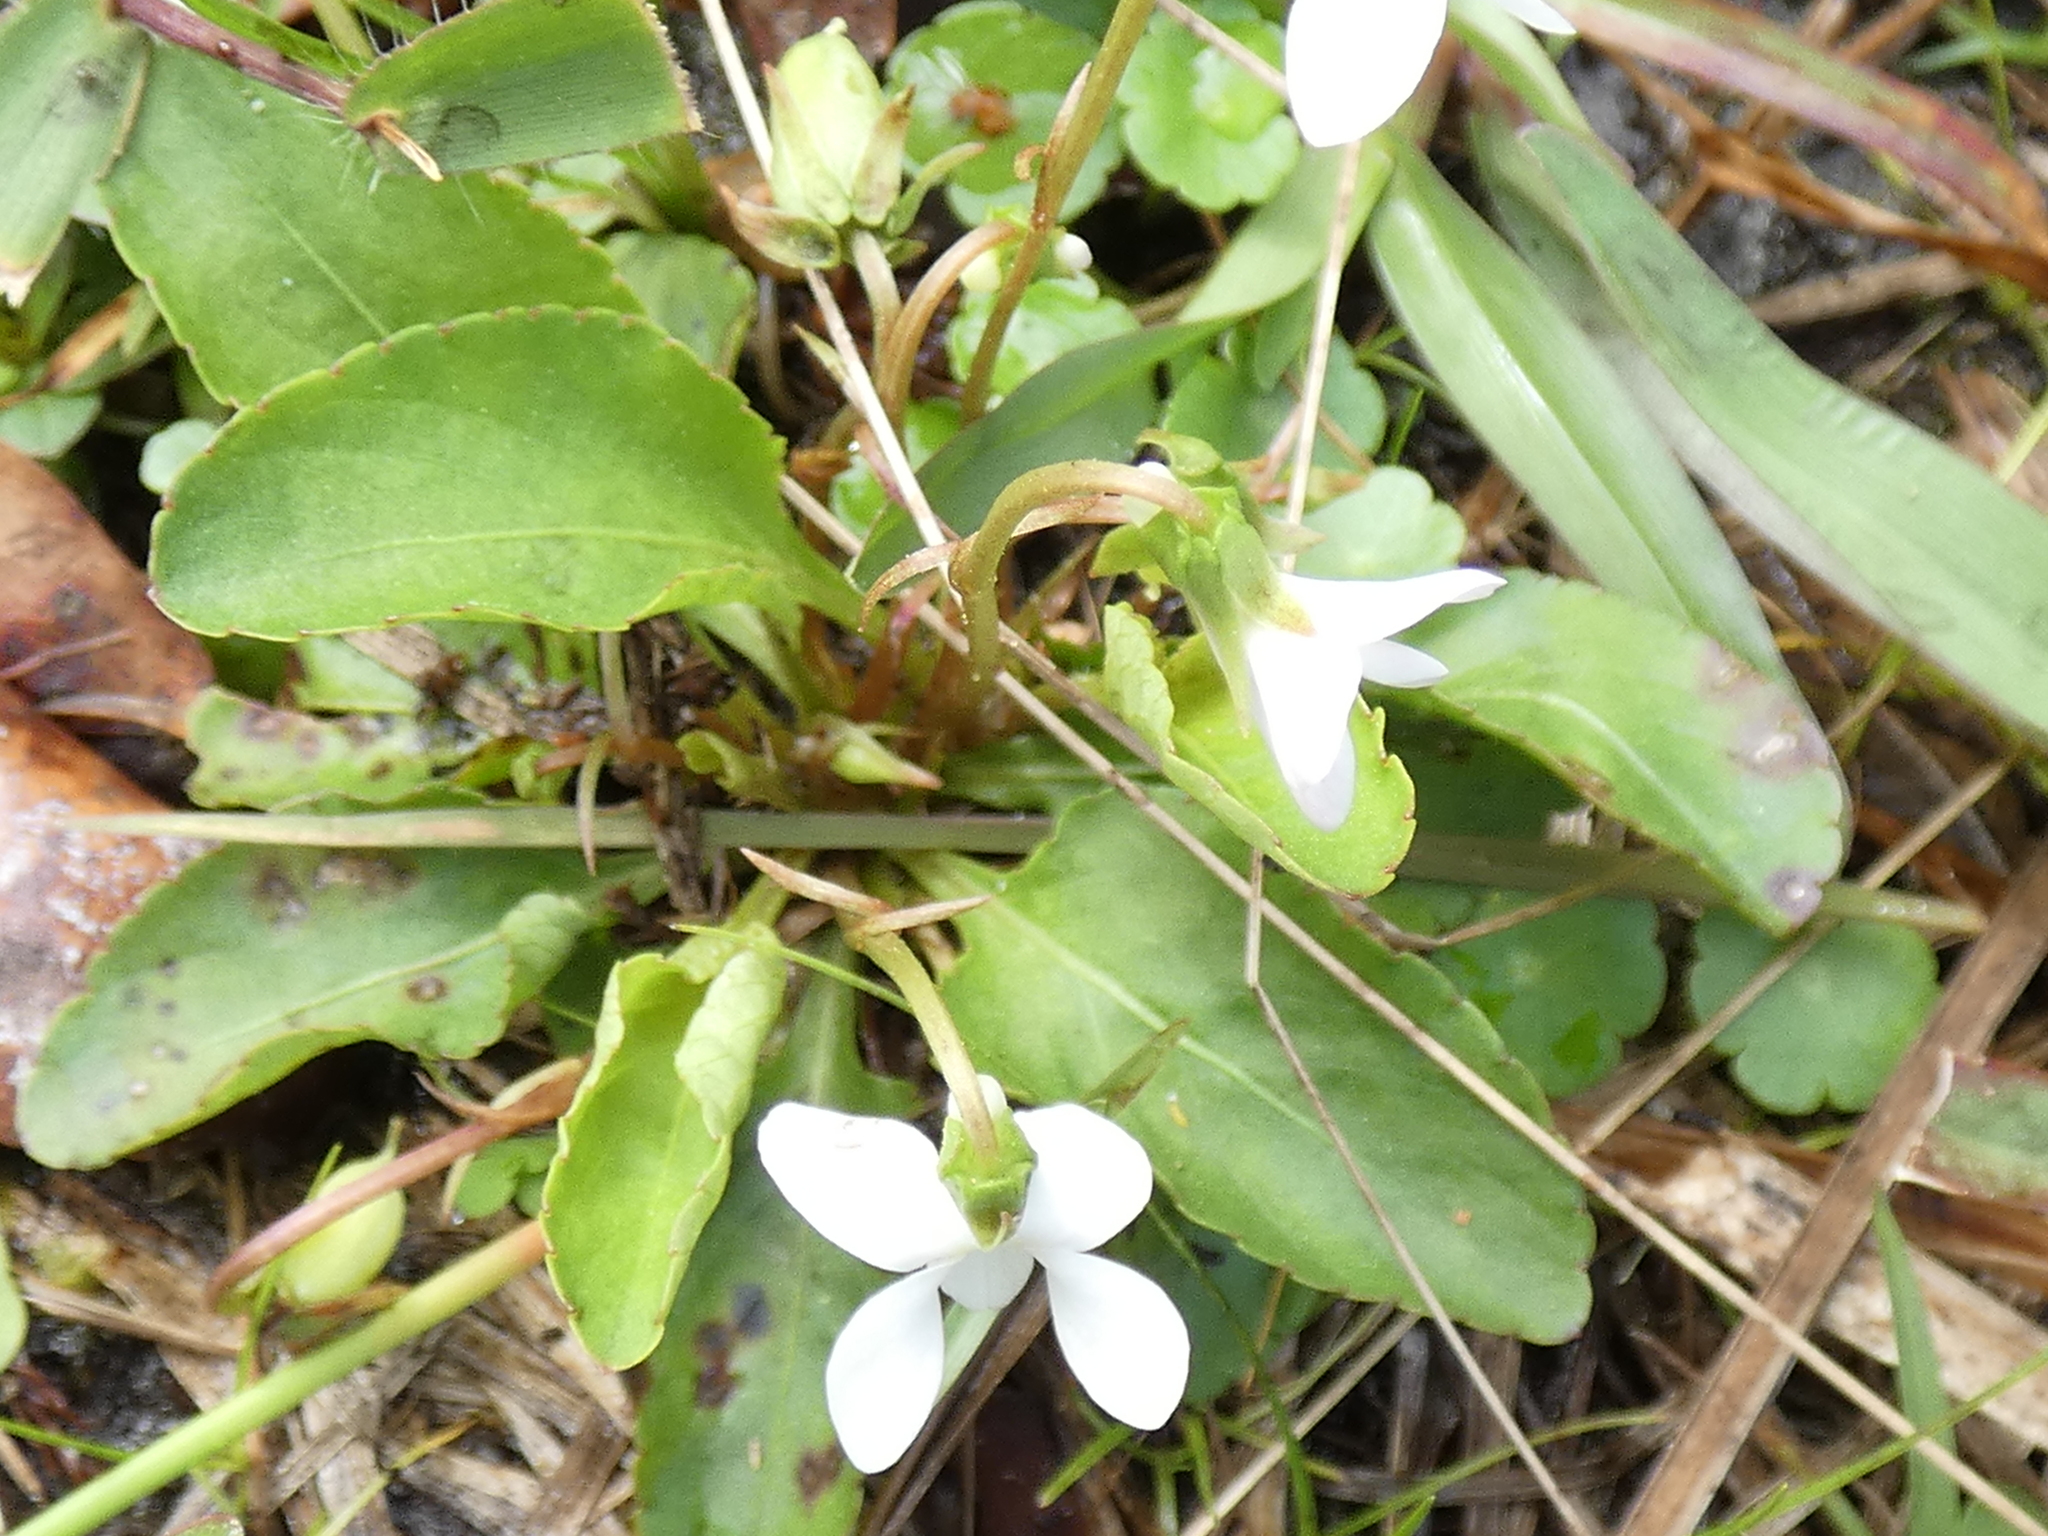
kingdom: Plantae
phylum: Tracheophyta
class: Magnoliopsida
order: Malpighiales
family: Violaceae
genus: Viola
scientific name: Viola primulifolia
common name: Primrose-leaf violet
